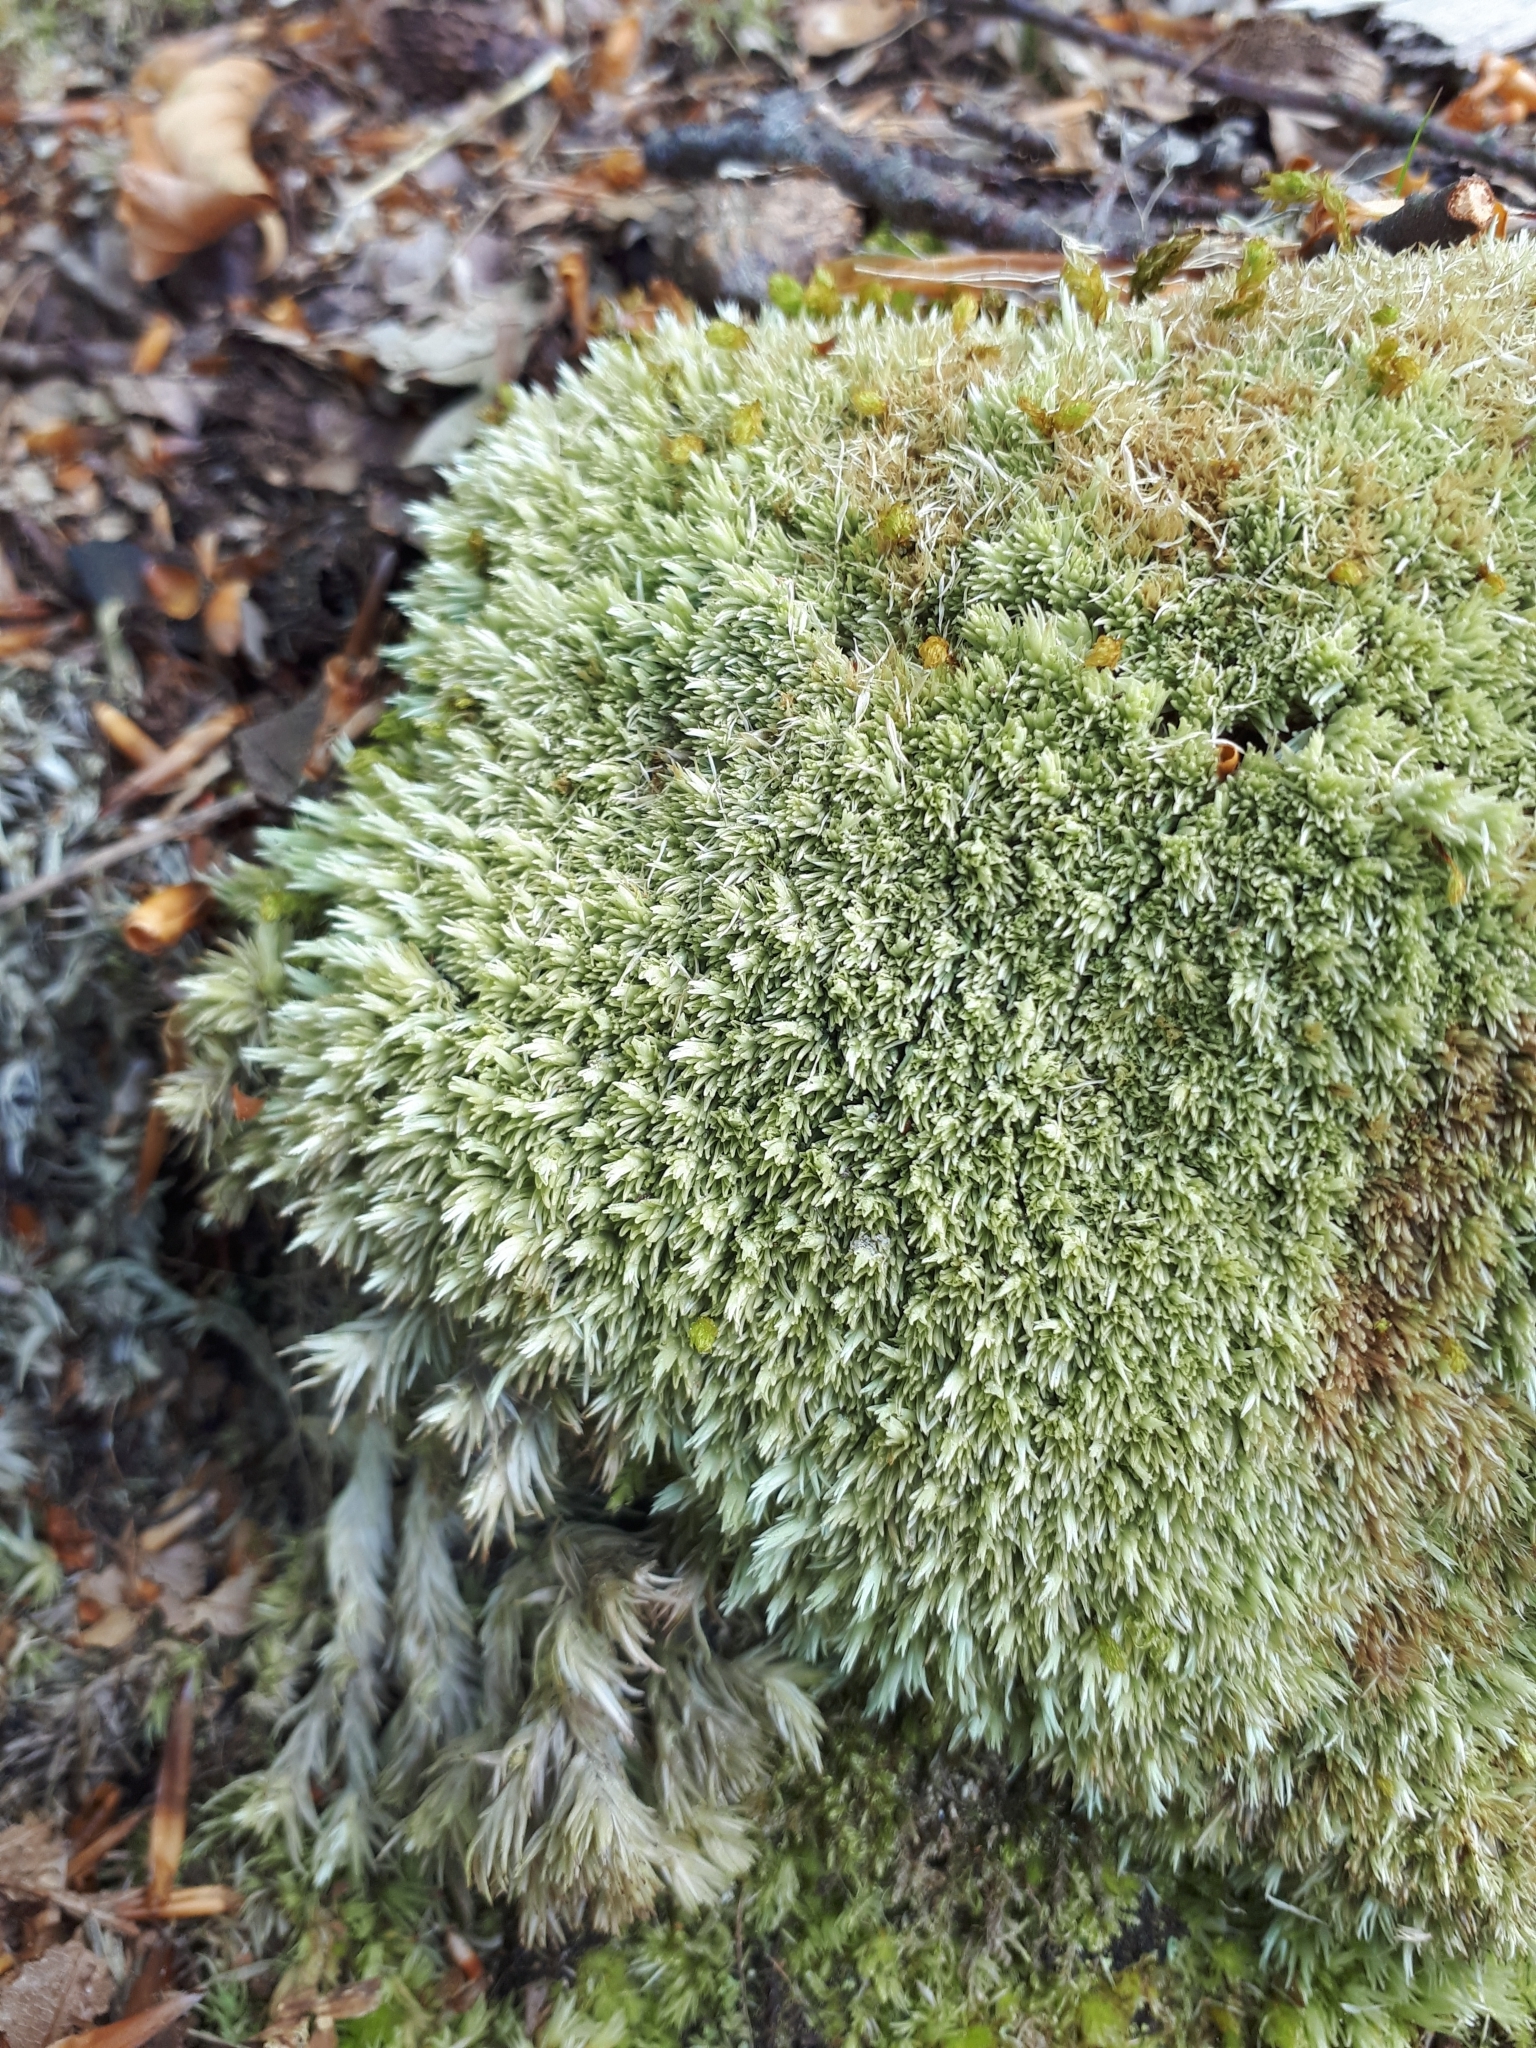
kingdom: Plantae
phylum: Bryophyta
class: Bryopsida
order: Dicranales
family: Leucobryaceae
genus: Leucobryum
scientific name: Leucobryum glaucum
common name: Large white-moss
